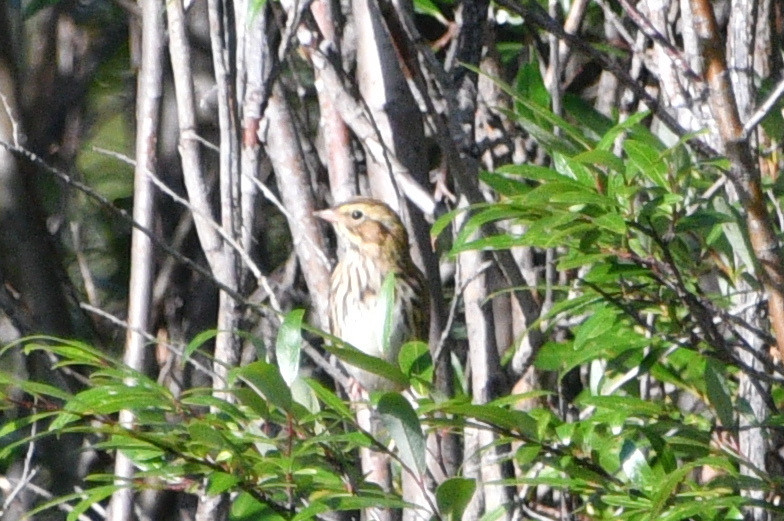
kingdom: Animalia
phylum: Chordata
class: Aves
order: Passeriformes
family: Passerellidae
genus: Passerculus
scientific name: Passerculus sandwichensis
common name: Savannah sparrow
